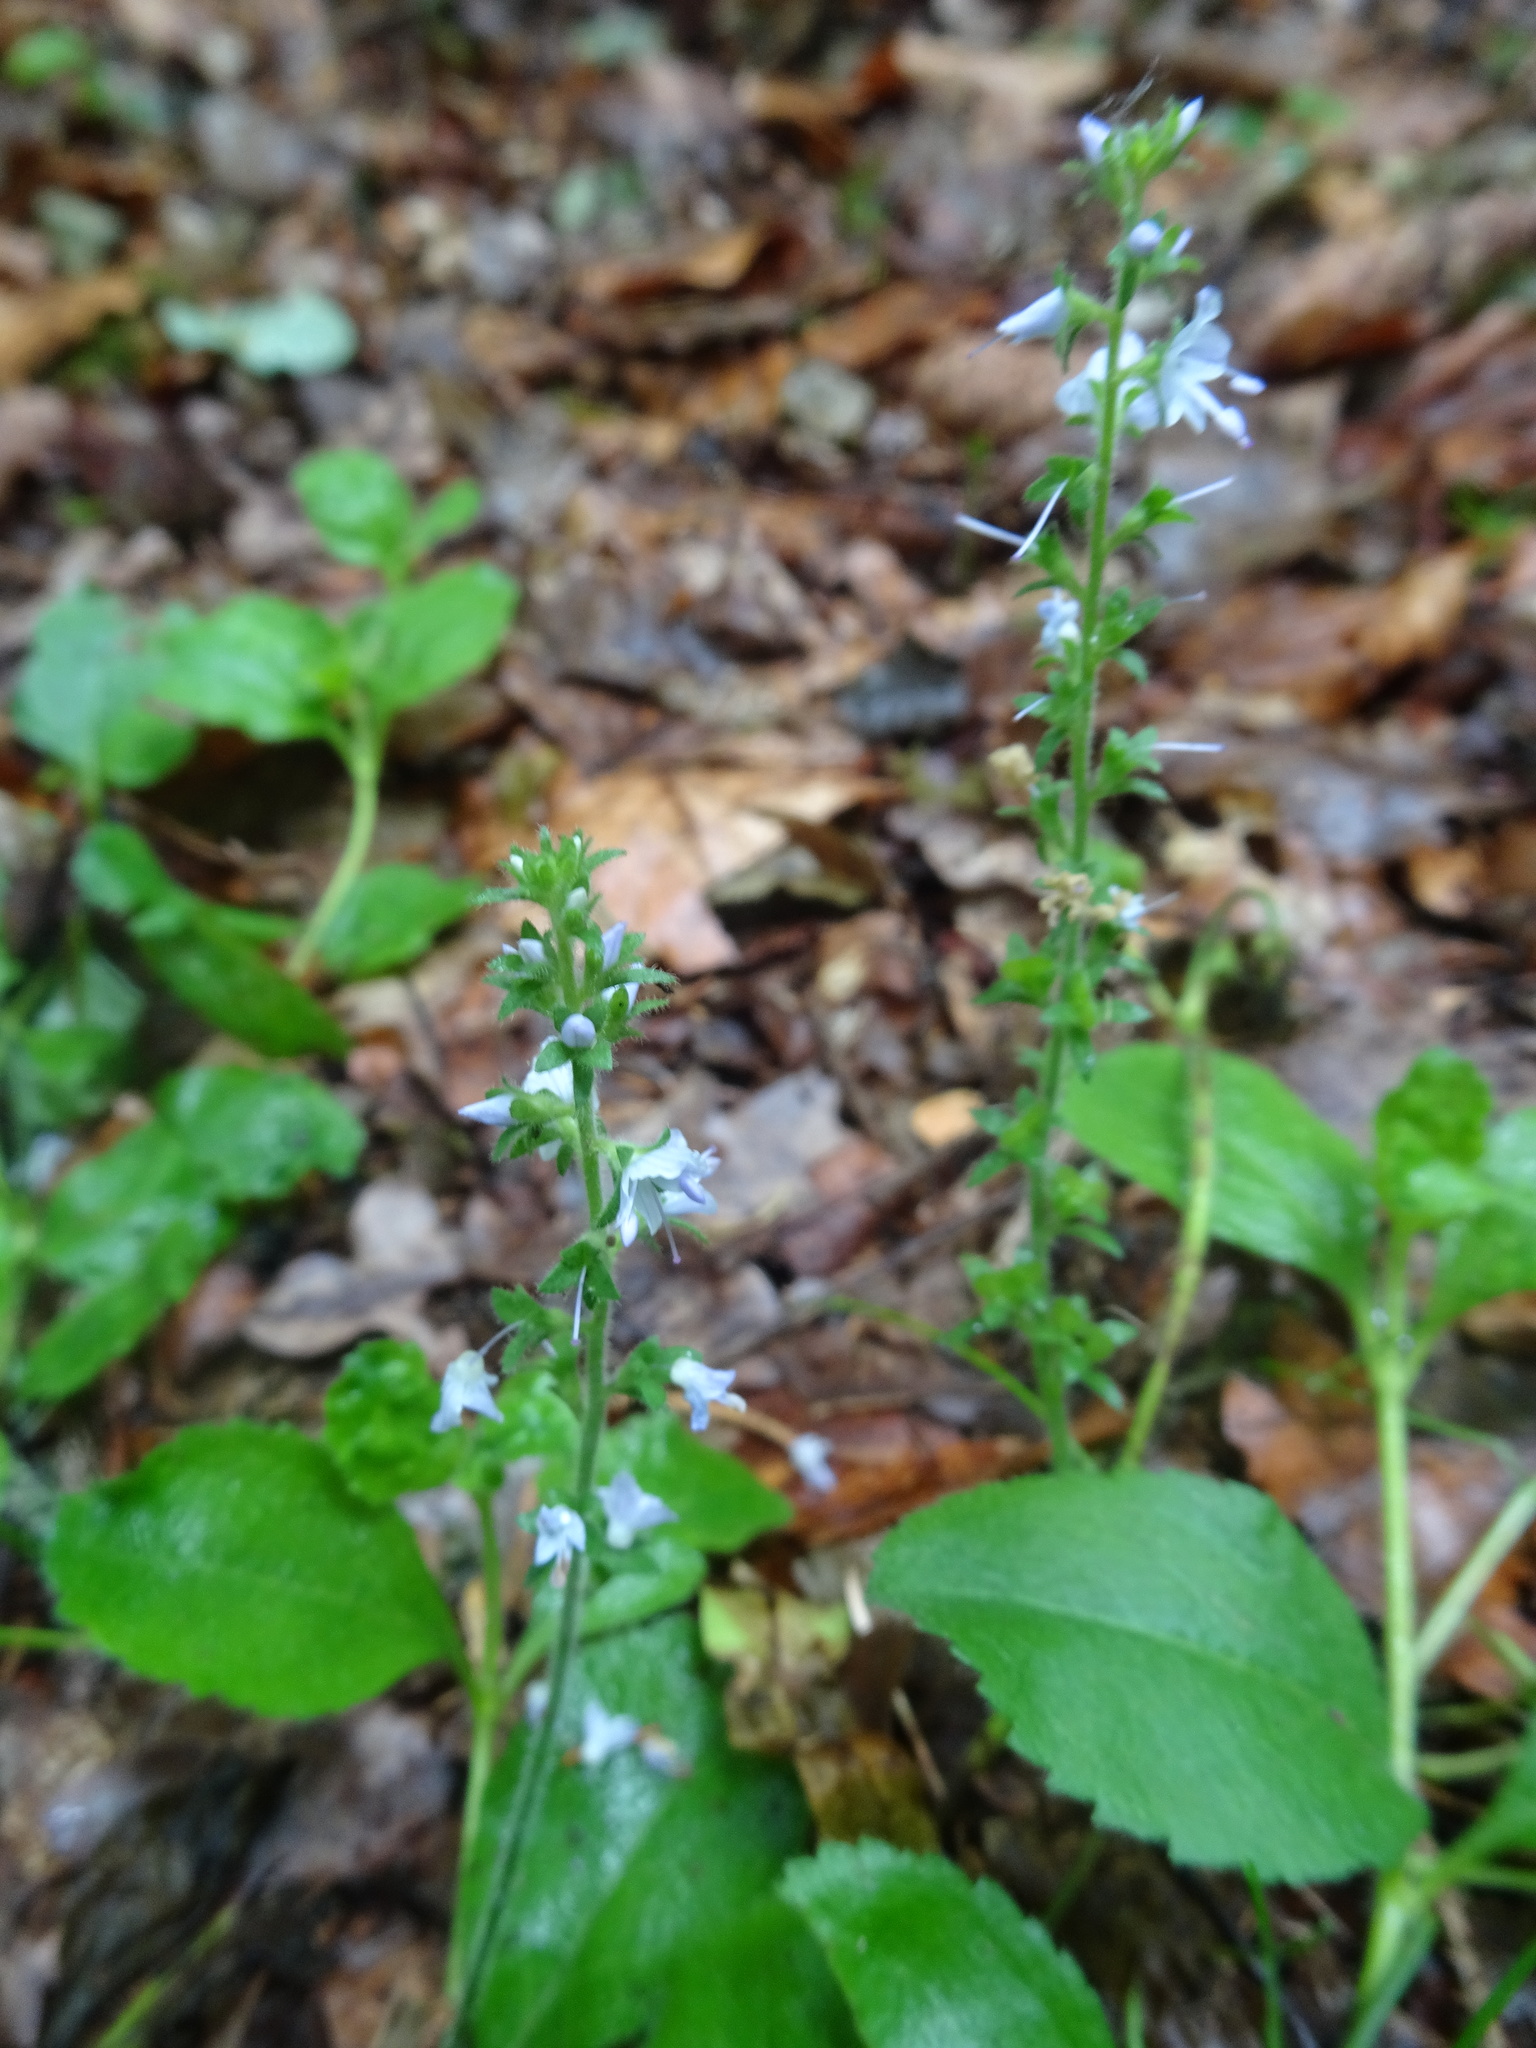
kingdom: Plantae
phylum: Tracheophyta
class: Magnoliopsida
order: Lamiales
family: Plantaginaceae
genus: Veronica
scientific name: Veronica officinalis
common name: Common speedwell
